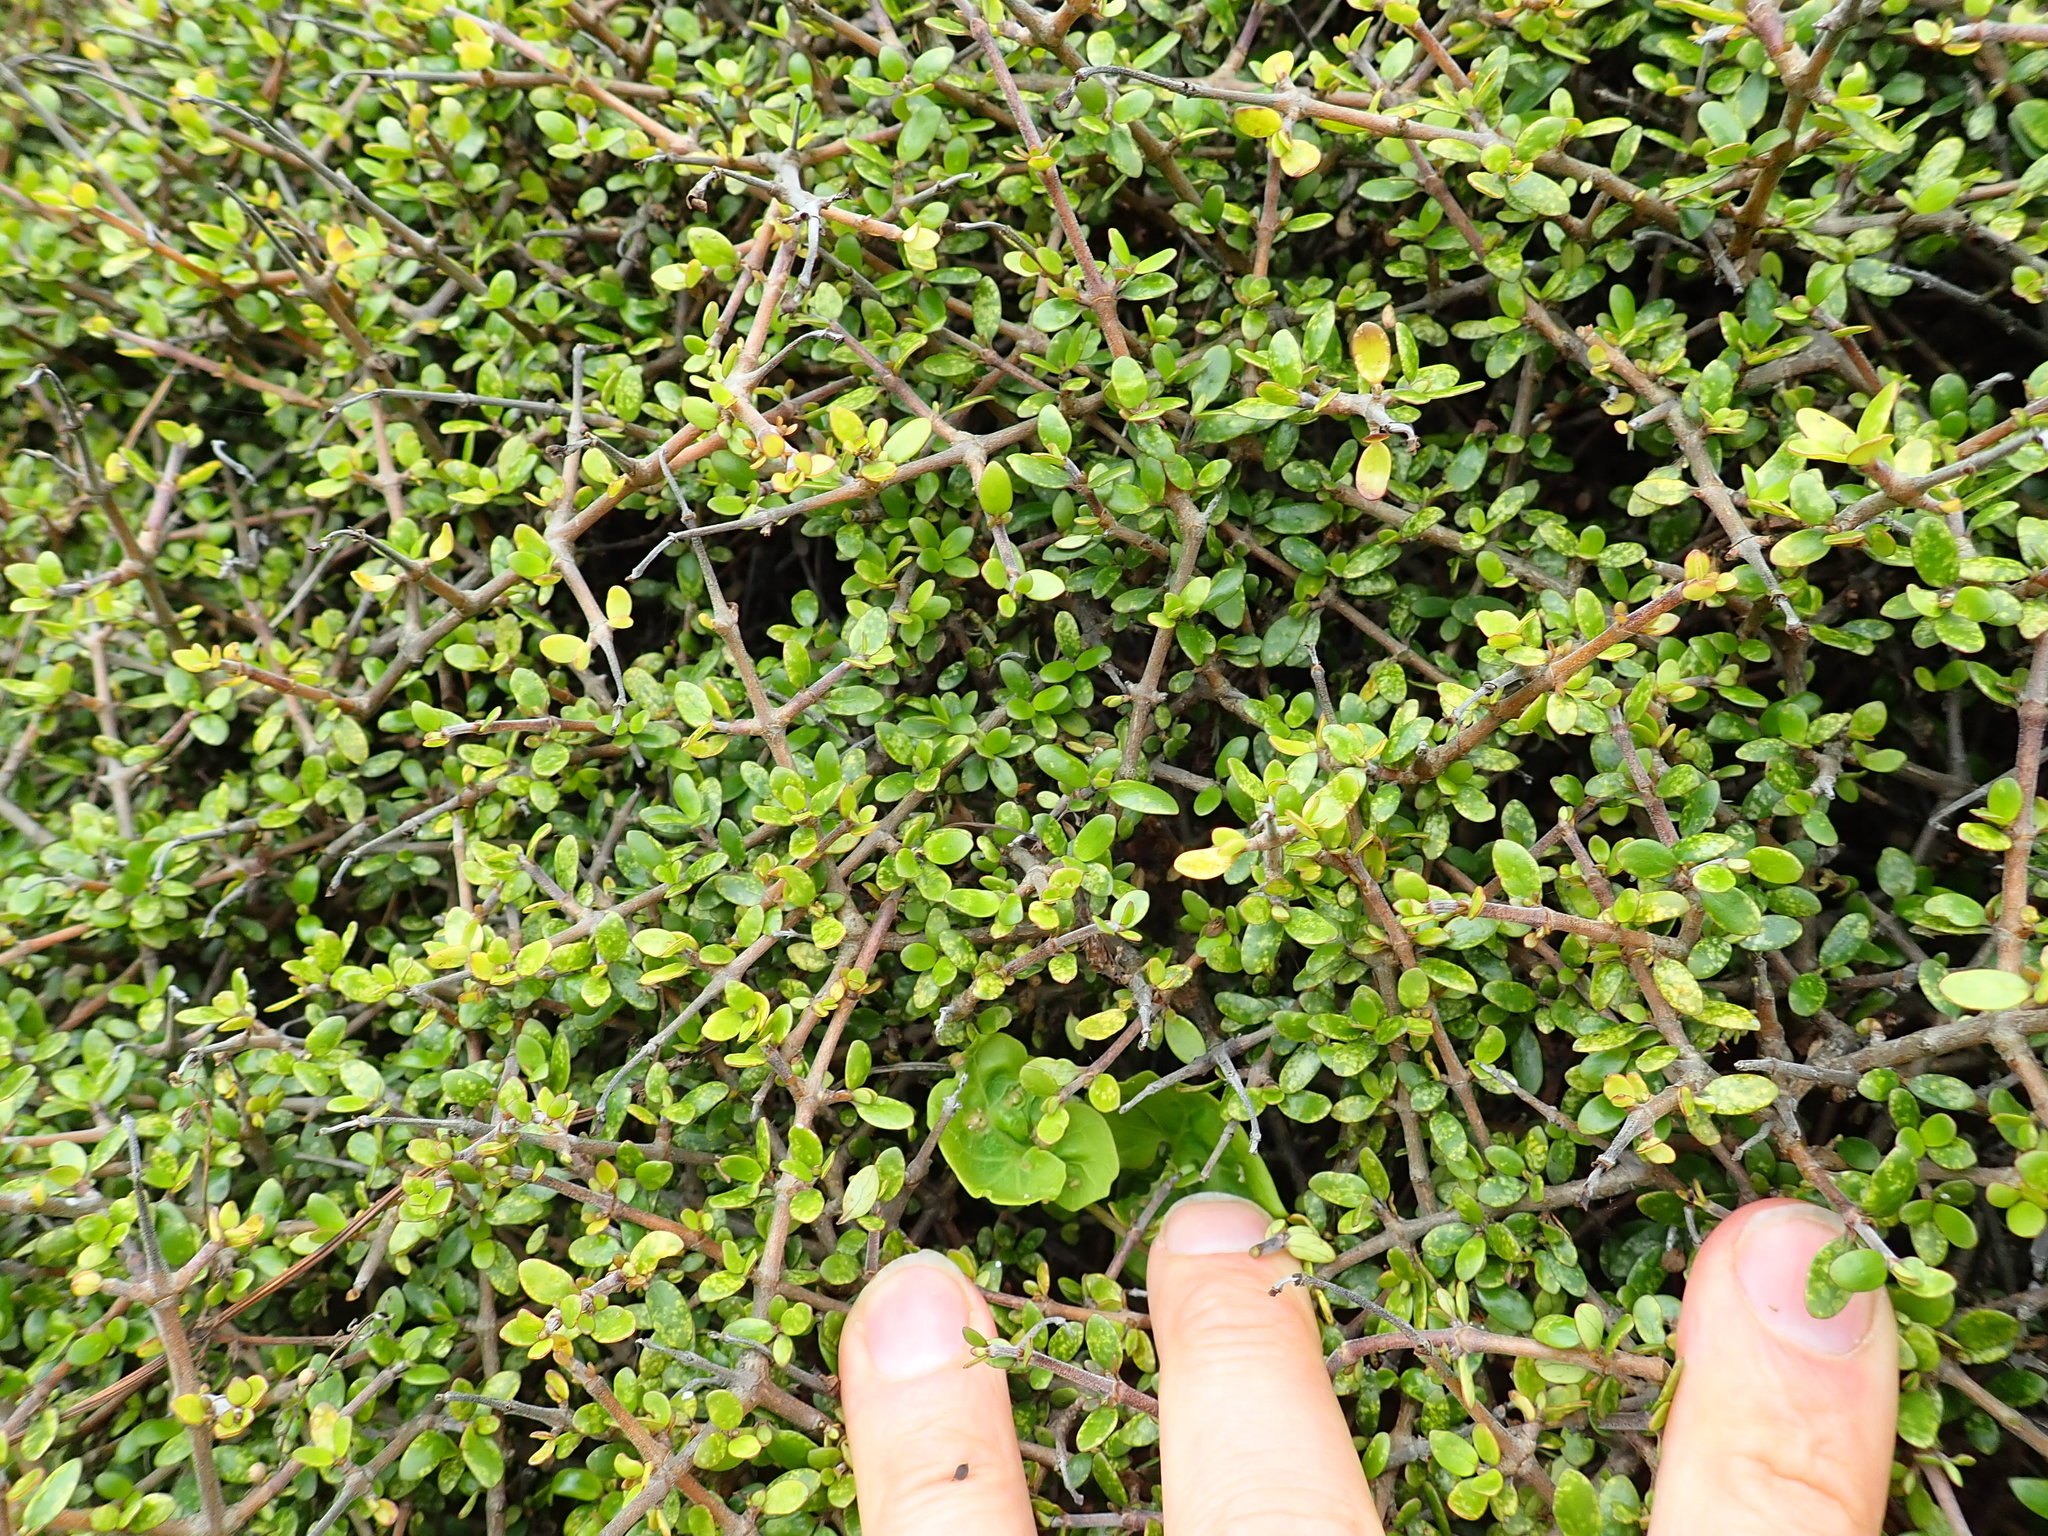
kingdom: Plantae
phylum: Tracheophyta
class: Magnoliopsida
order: Gentianales
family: Rubiaceae
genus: Coprosma
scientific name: Coprosma propinqua
